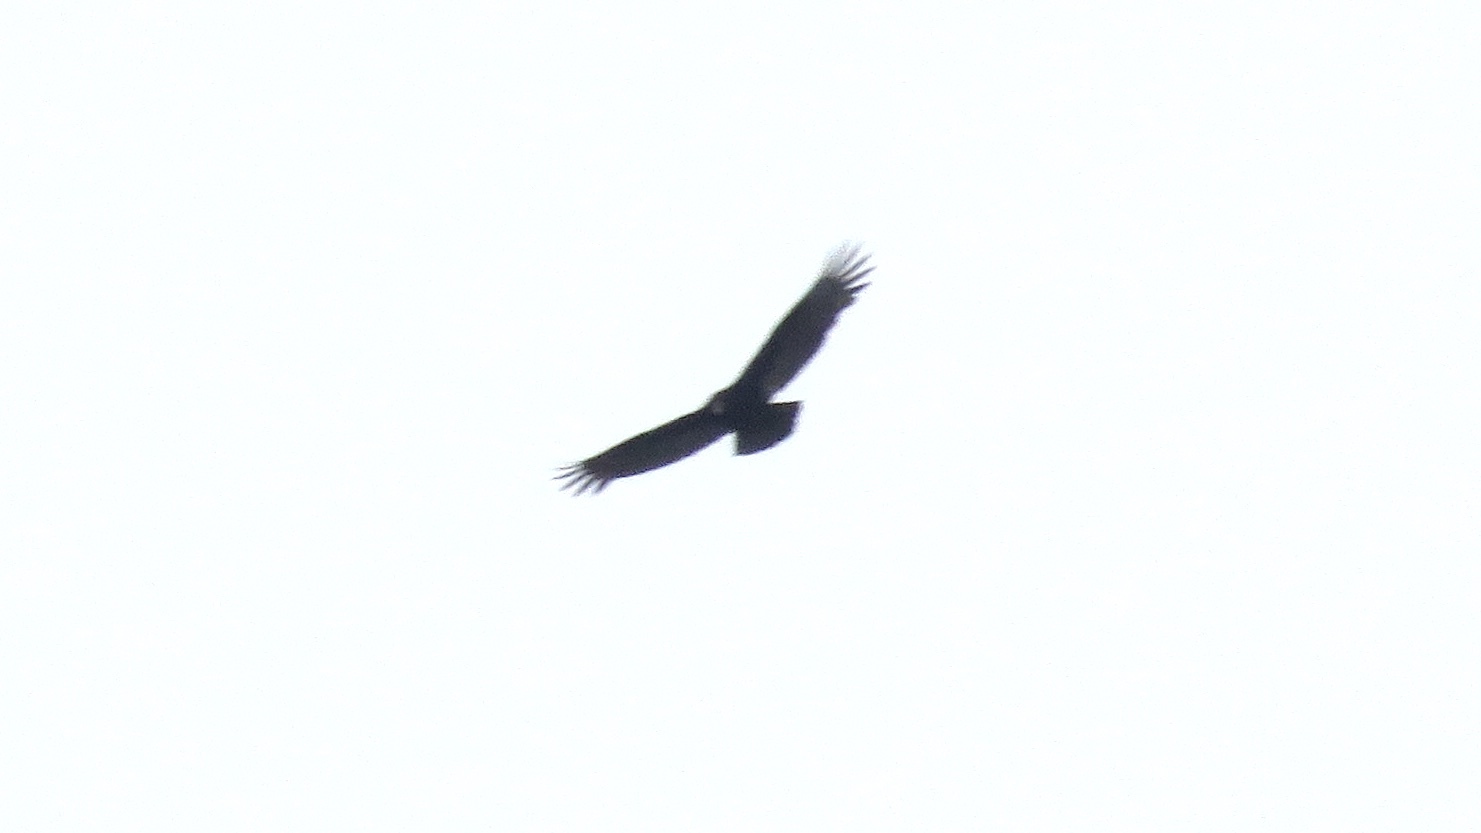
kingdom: Animalia
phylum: Chordata
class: Aves
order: Accipitriformes
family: Cathartidae
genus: Cathartes
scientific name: Cathartes aura
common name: Turkey vulture
